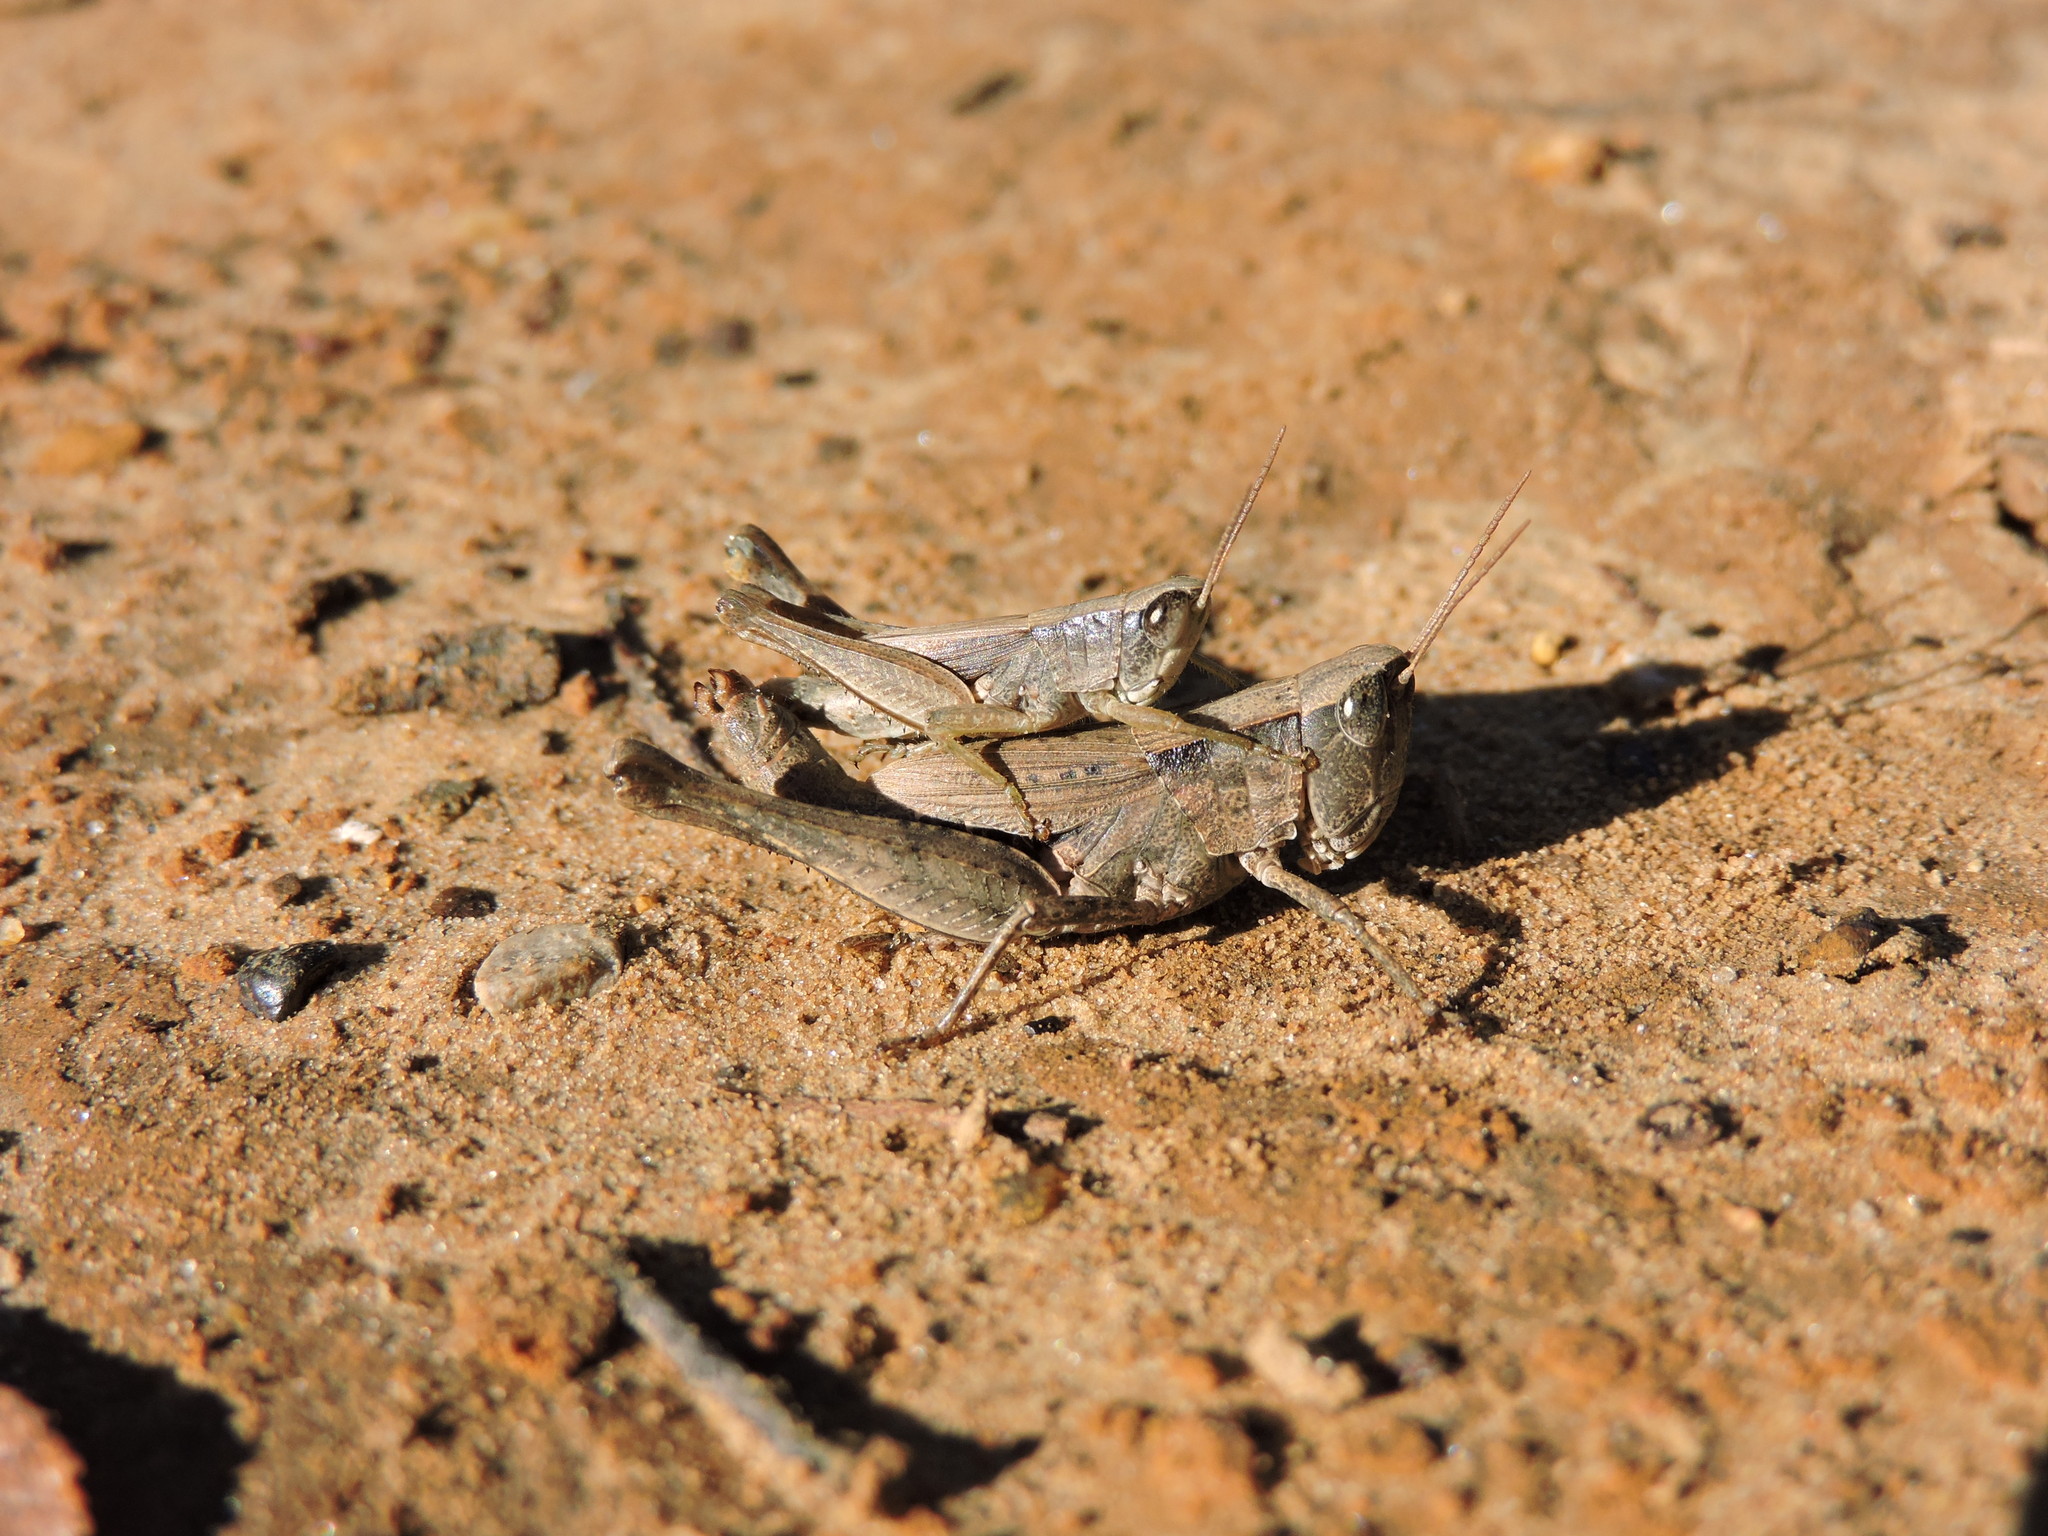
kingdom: Animalia
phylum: Arthropoda
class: Insecta
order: Orthoptera
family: Acrididae
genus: Dichromorpha
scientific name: Dichromorpha viridis
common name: Short-winged green grasshopper
